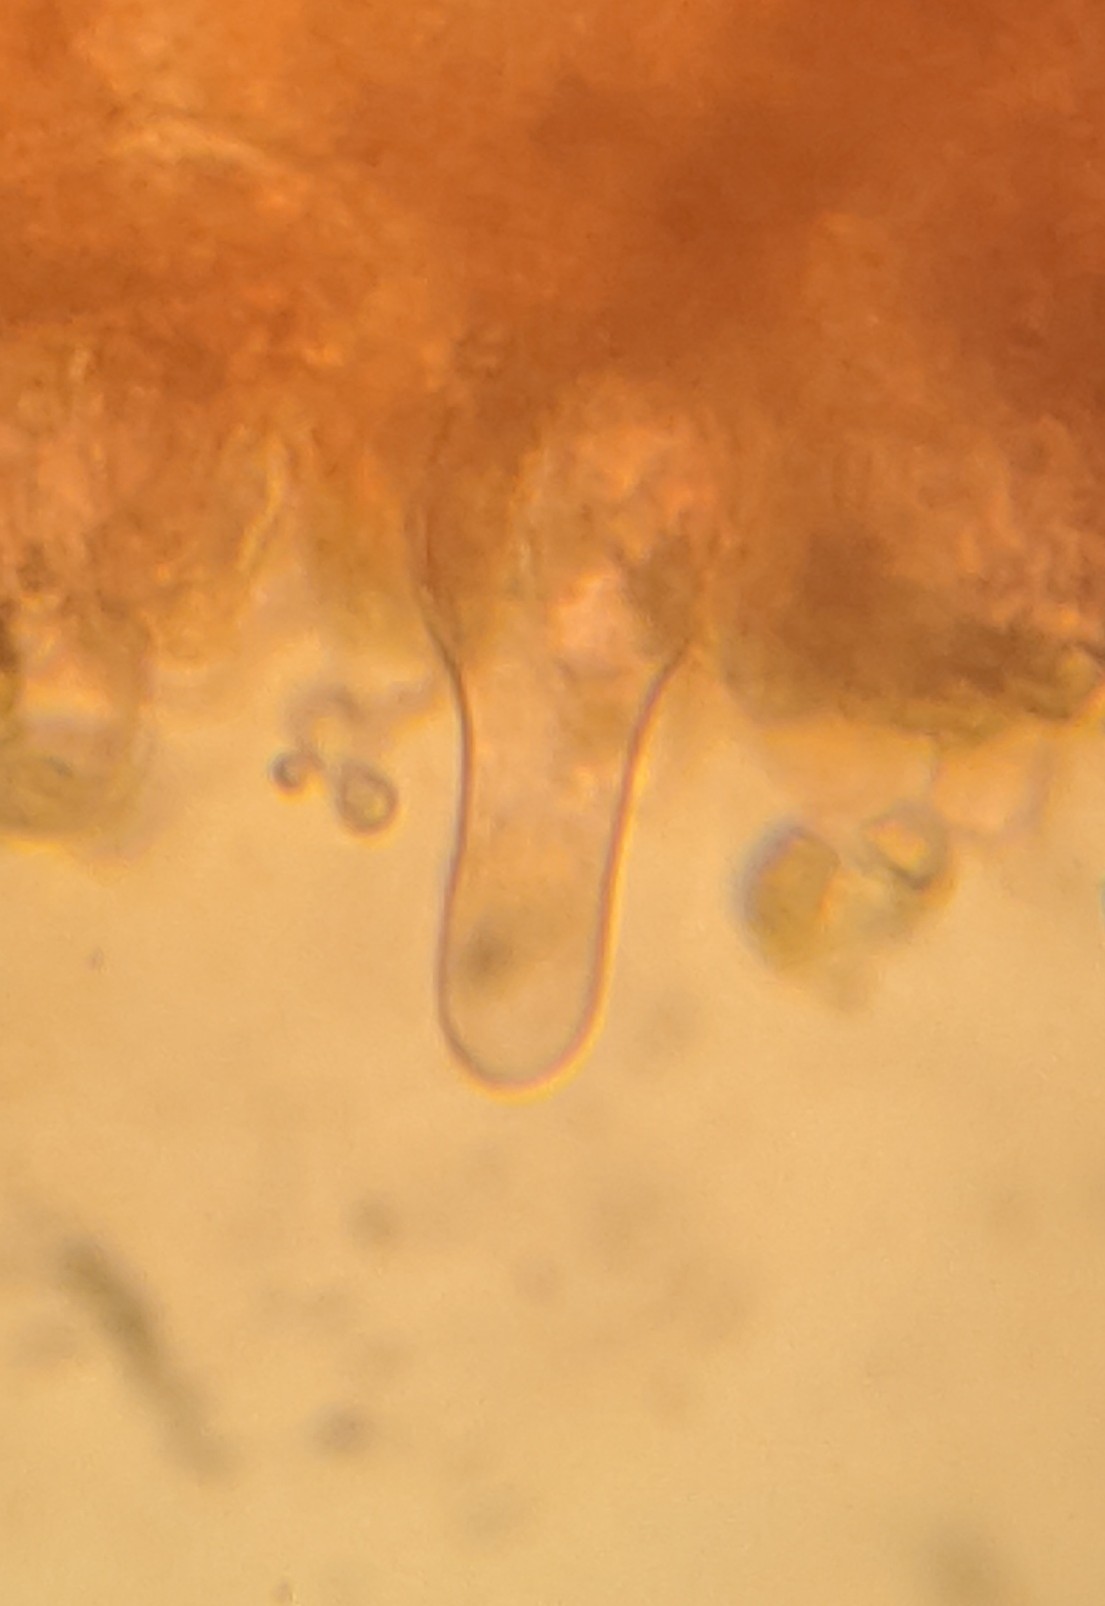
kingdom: Fungi
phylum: Basidiomycota
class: Agaricomycetes
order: Agaricales
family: Strophariaceae
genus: Agrocybe
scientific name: Agrocybe praecox
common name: Spring fieldcap
